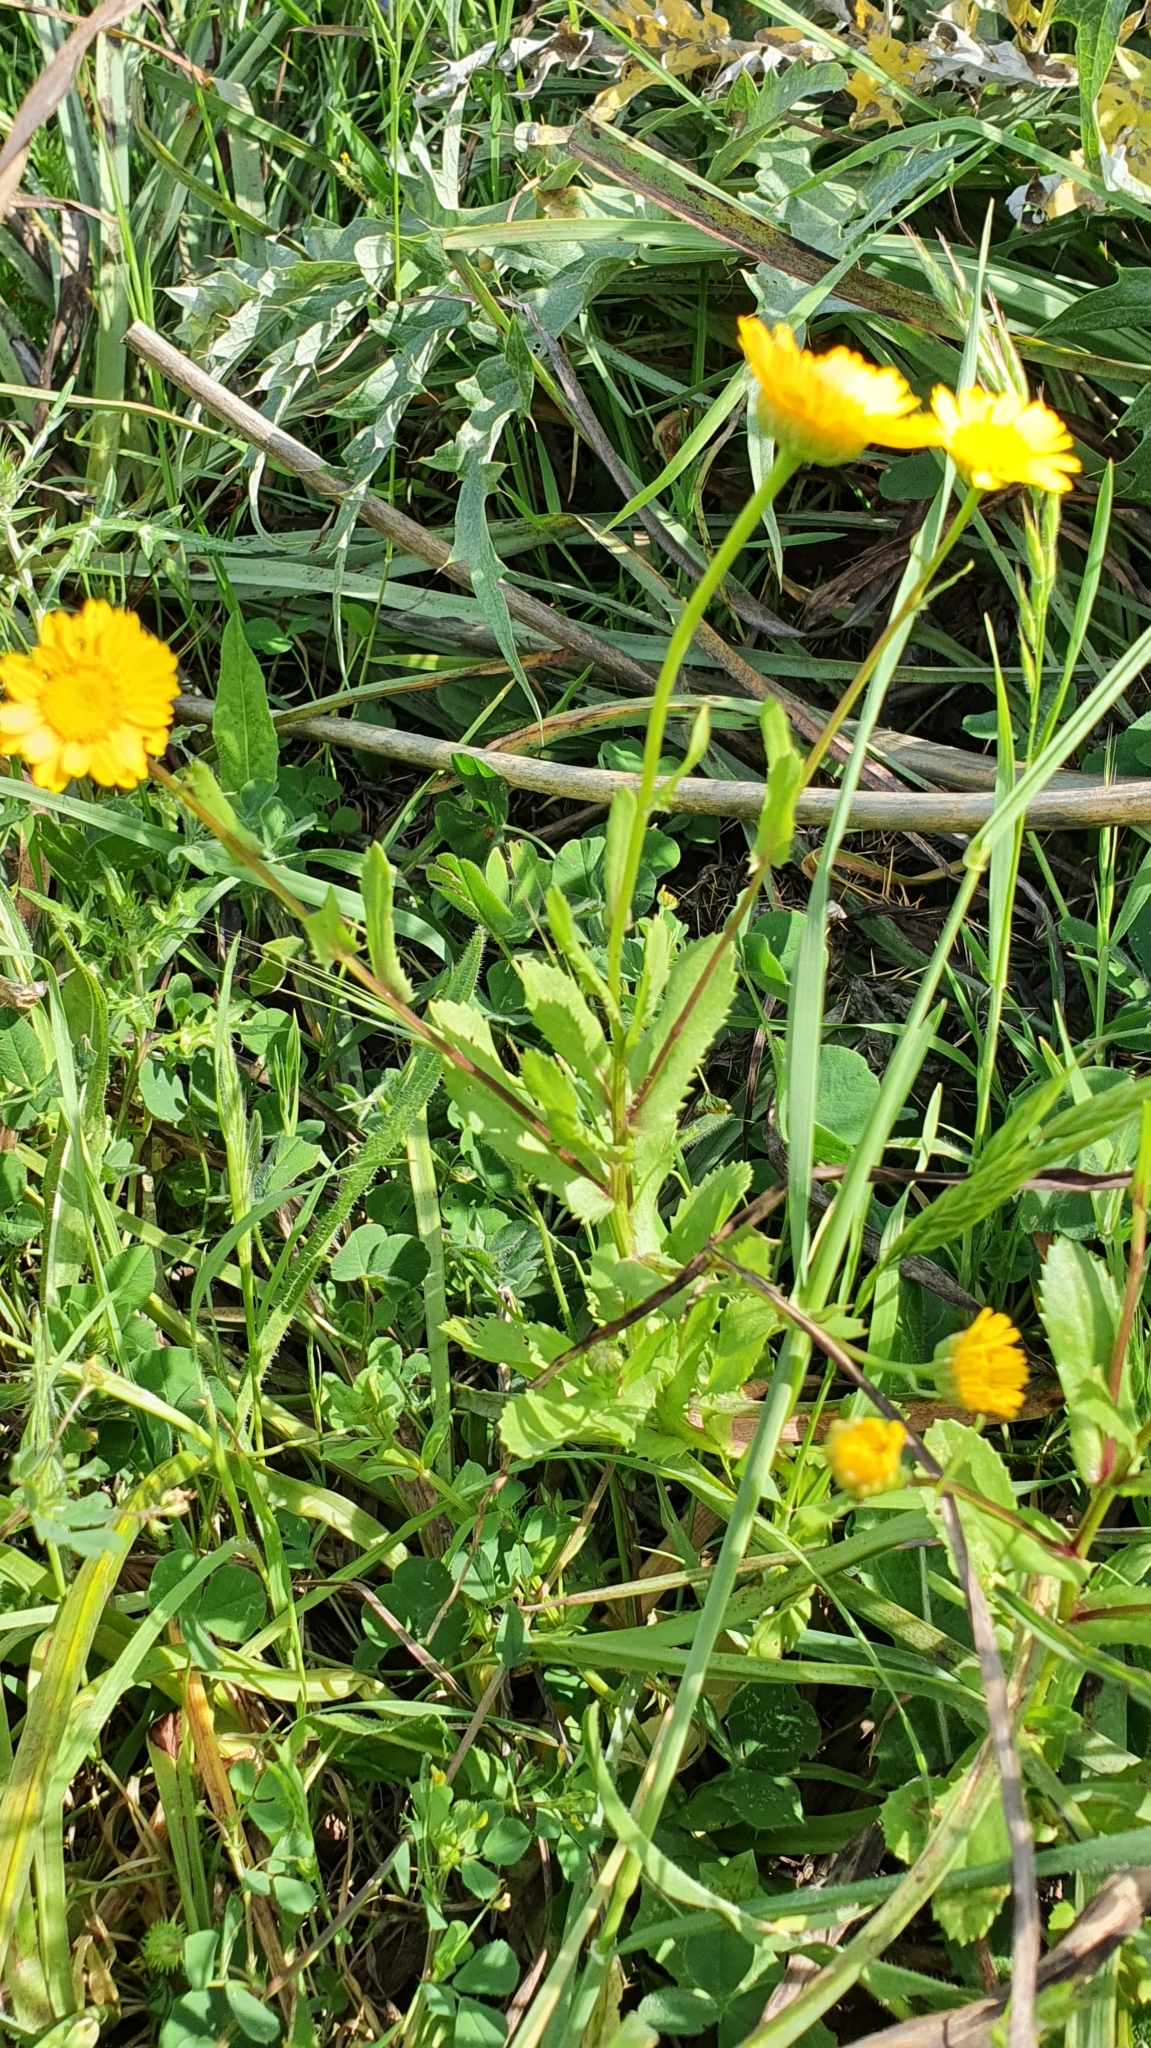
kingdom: Plantae
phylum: Tracheophyta
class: Magnoliopsida
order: Asterales
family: Asteraceae
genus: Coleostephus
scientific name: Coleostephus myconis
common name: Mediterranean marigold
